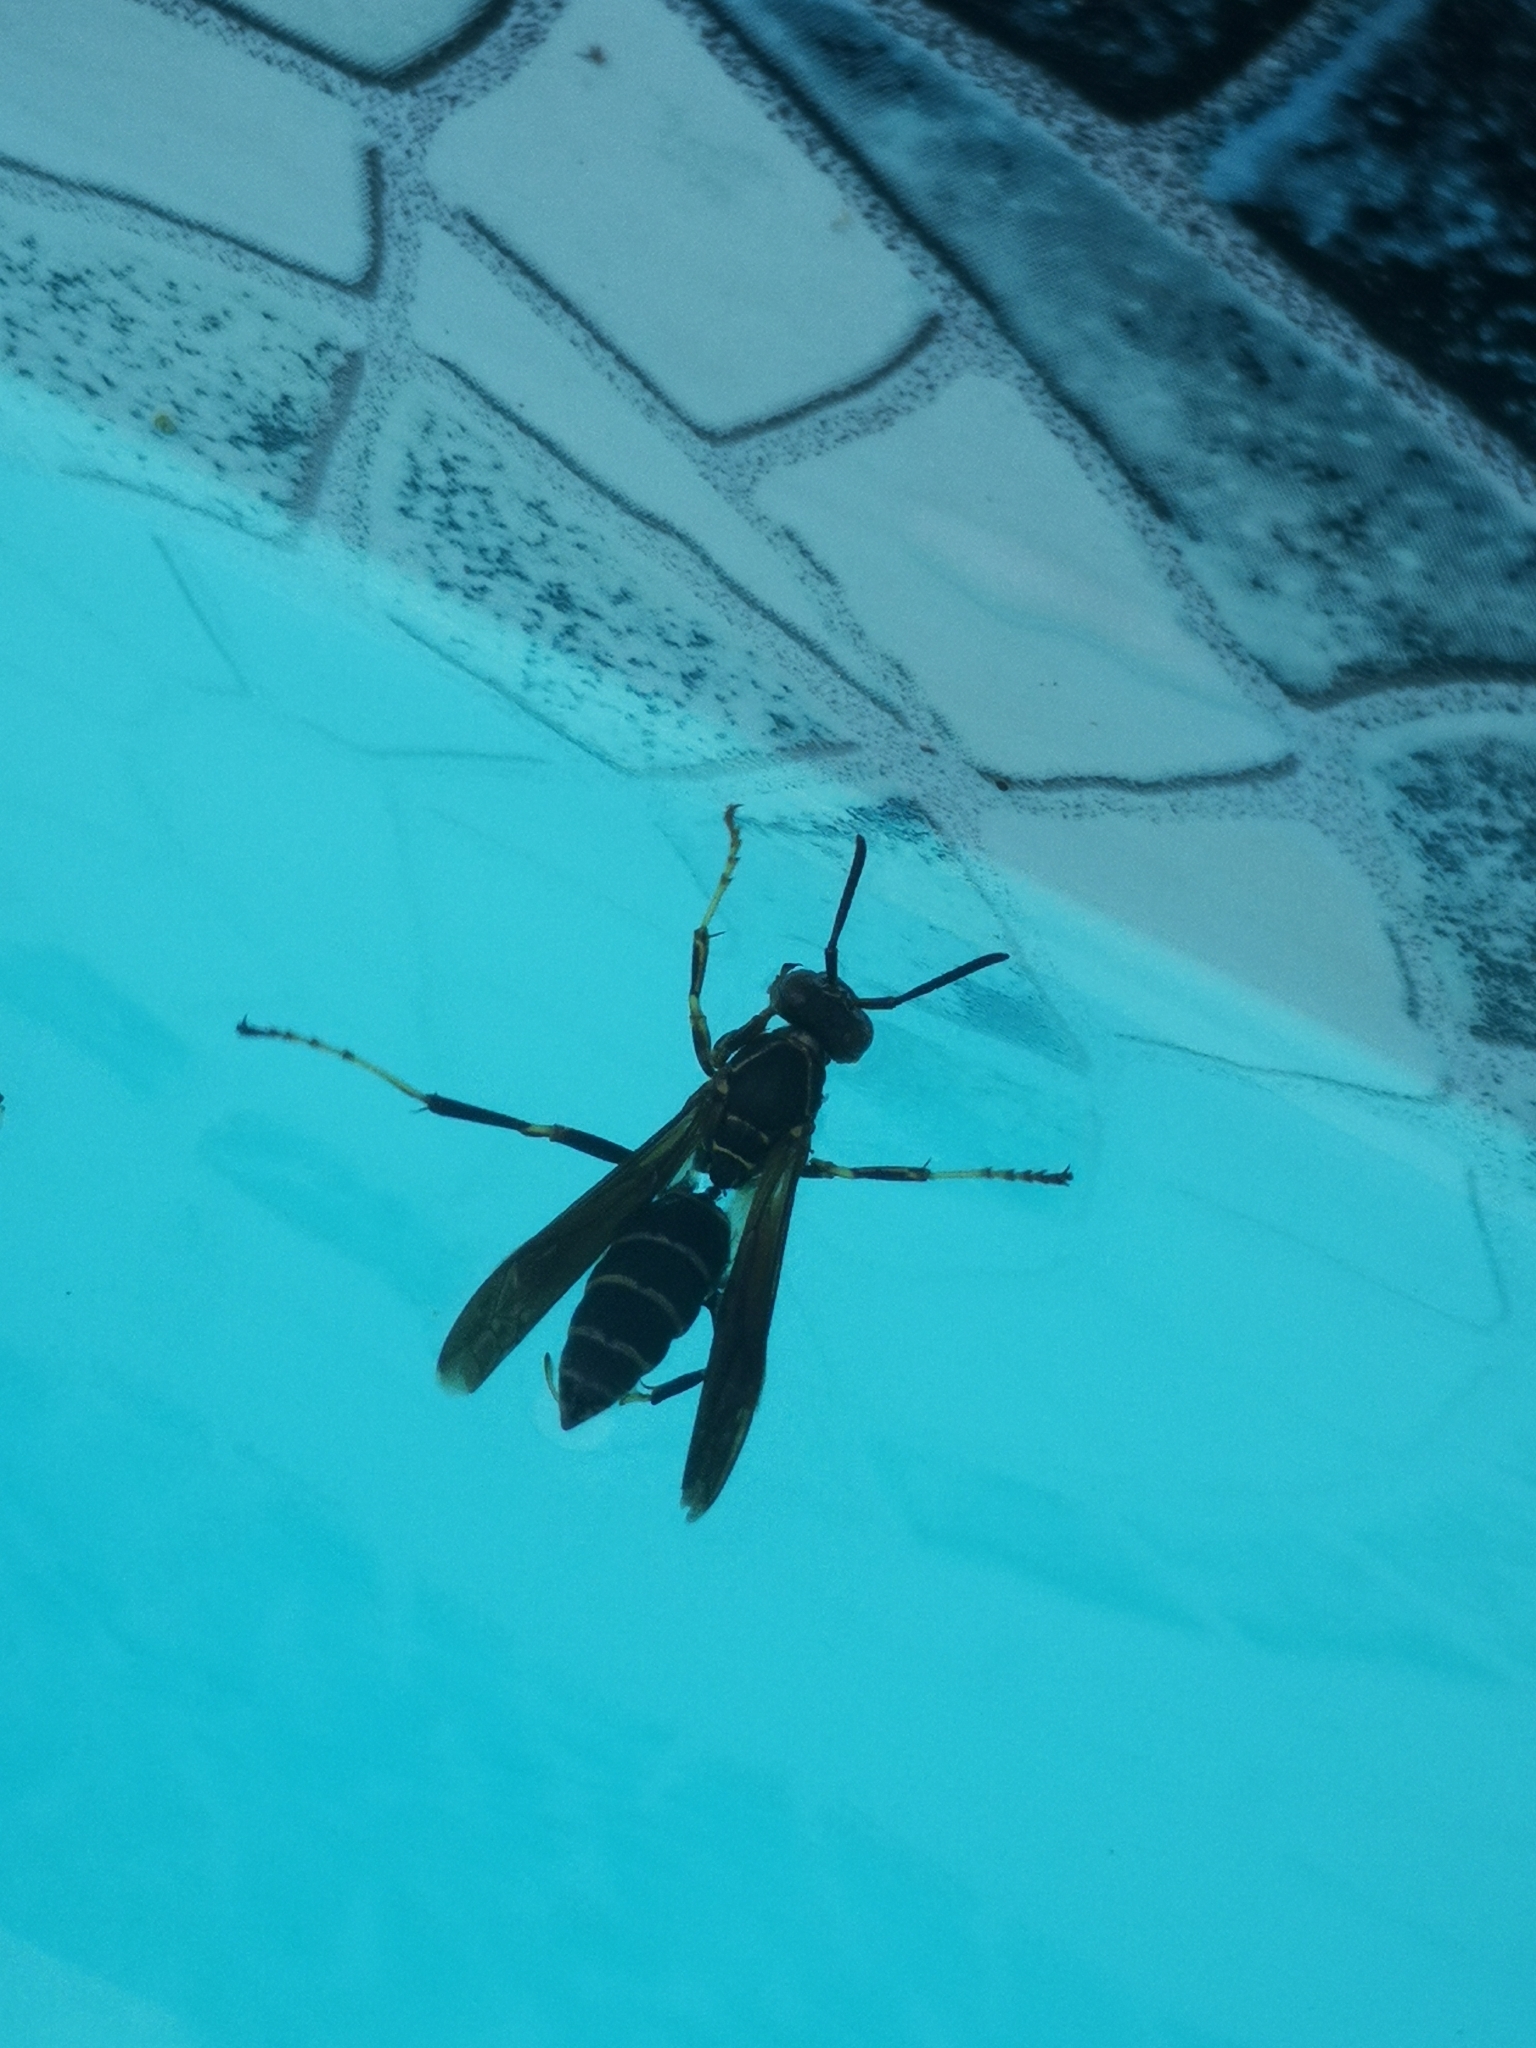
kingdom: Animalia
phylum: Arthropoda
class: Insecta
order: Hymenoptera
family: Eumenidae
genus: Polistes
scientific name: Polistes fuscatus
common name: Dark paper wasp
